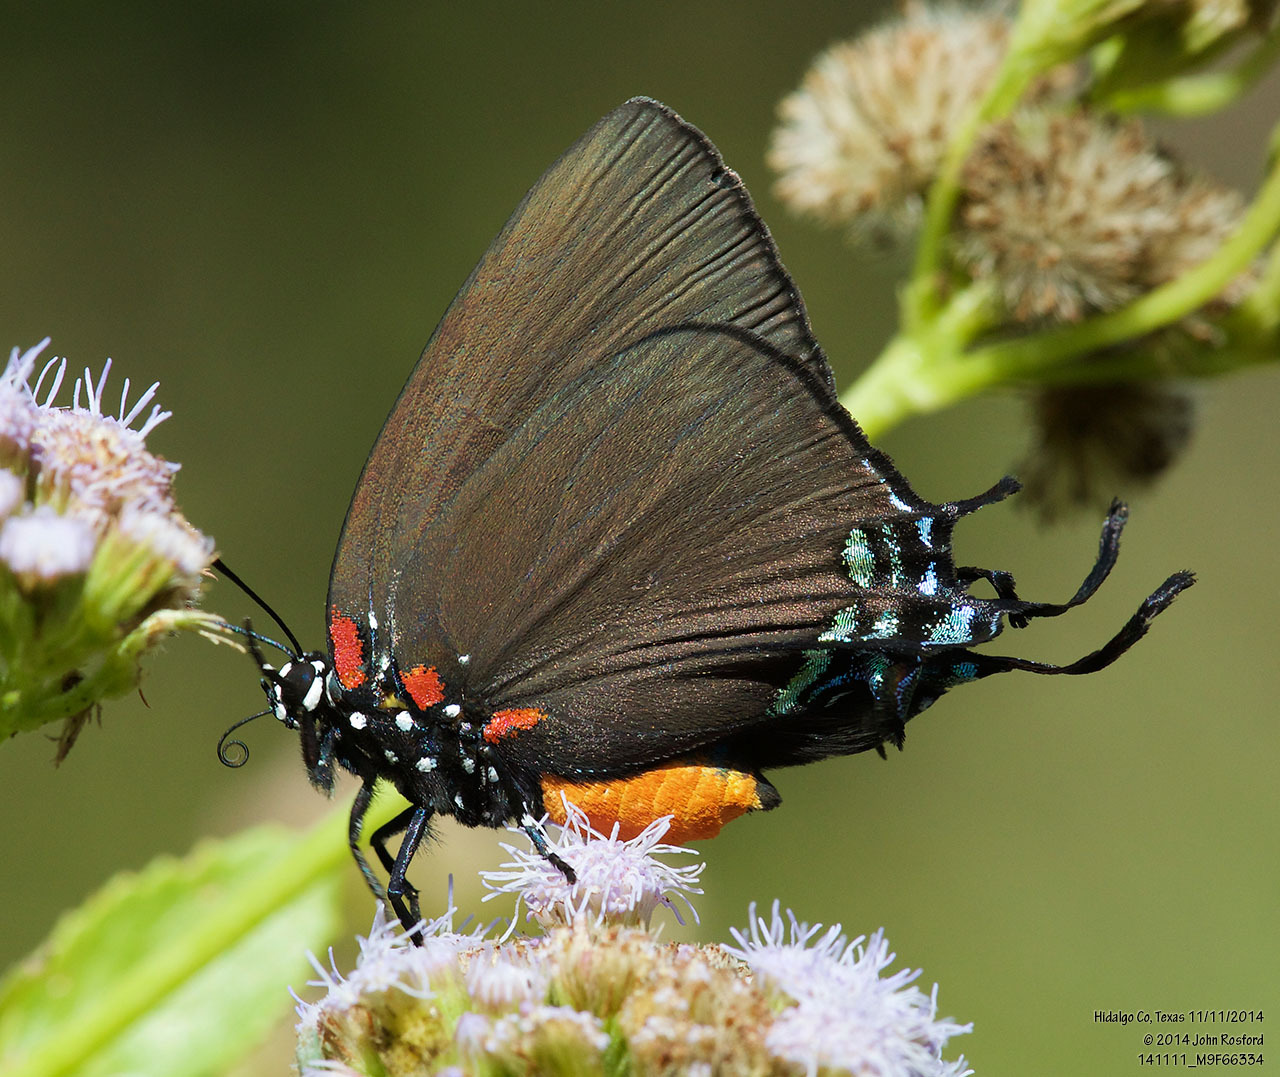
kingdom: Animalia
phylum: Arthropoda
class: Insecta
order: Lepidoptera
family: Lycaenidae
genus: Atlides
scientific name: Atlides halesus
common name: Great purple hairstreak
